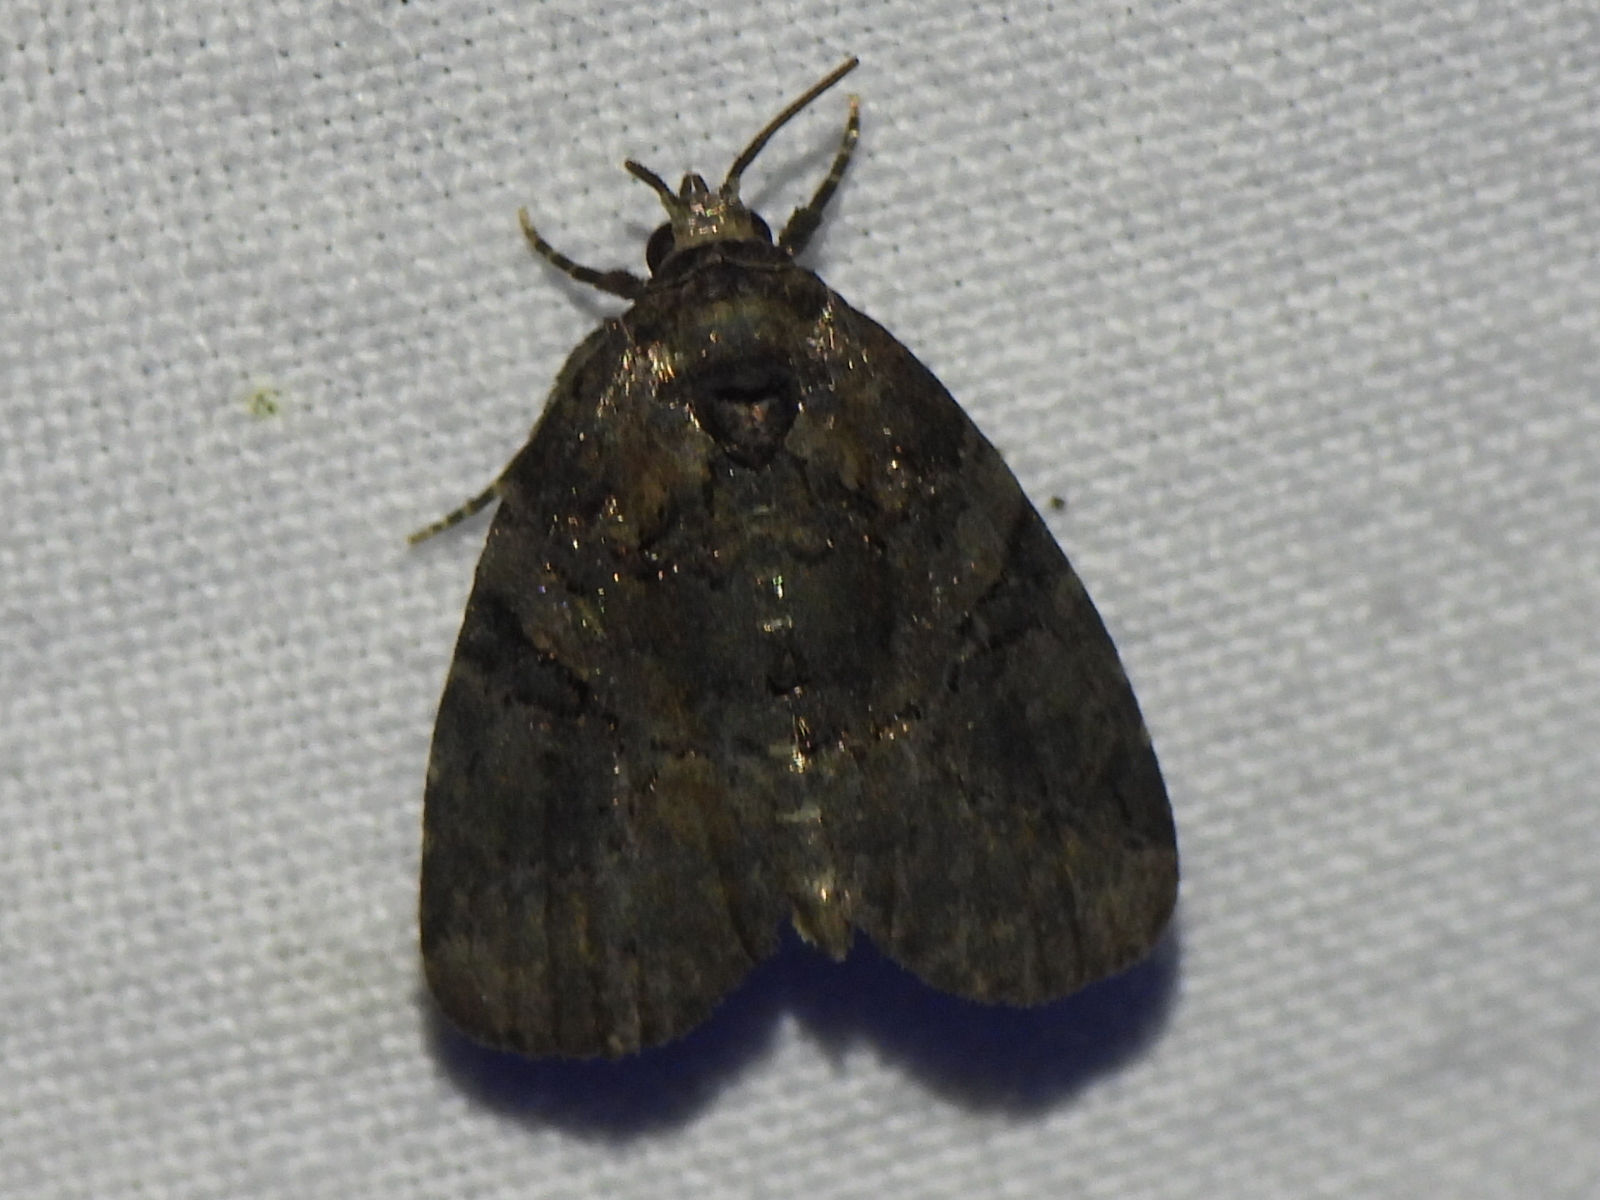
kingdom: Animalia
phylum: Arthropoda
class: Insecta
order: Lepidoptera
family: Noctuidae
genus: Pseudeustrotia
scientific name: Pseudeustrotia indeterminata
